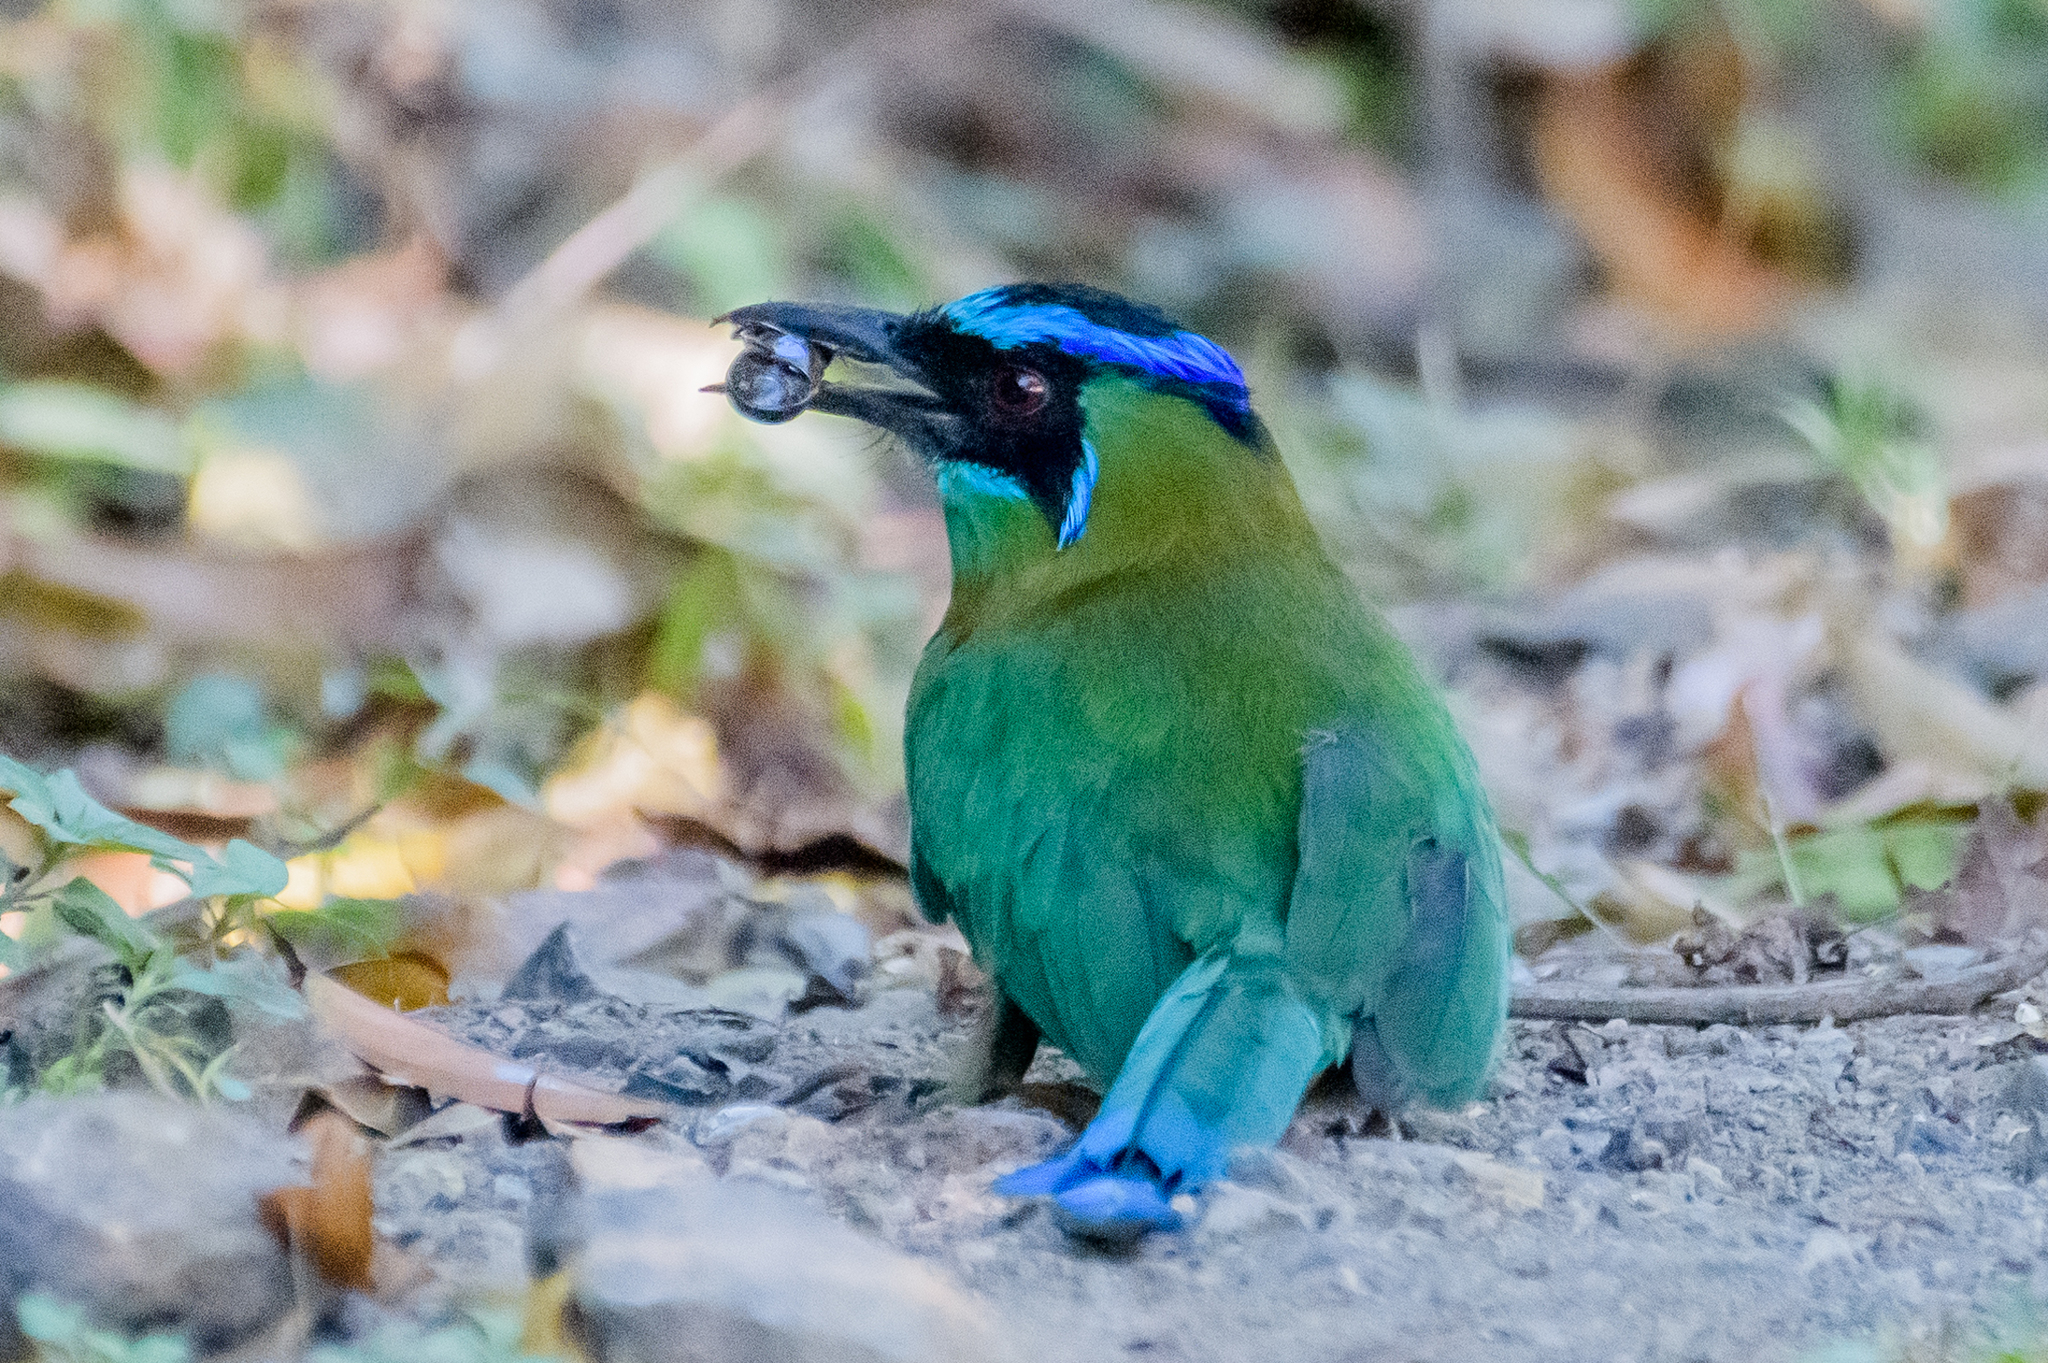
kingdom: Animalia
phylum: Chordata
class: Aves
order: Coraciiformes
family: Momotidae
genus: Momotus
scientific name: Momotus lessonii
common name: Lesson's motmot
